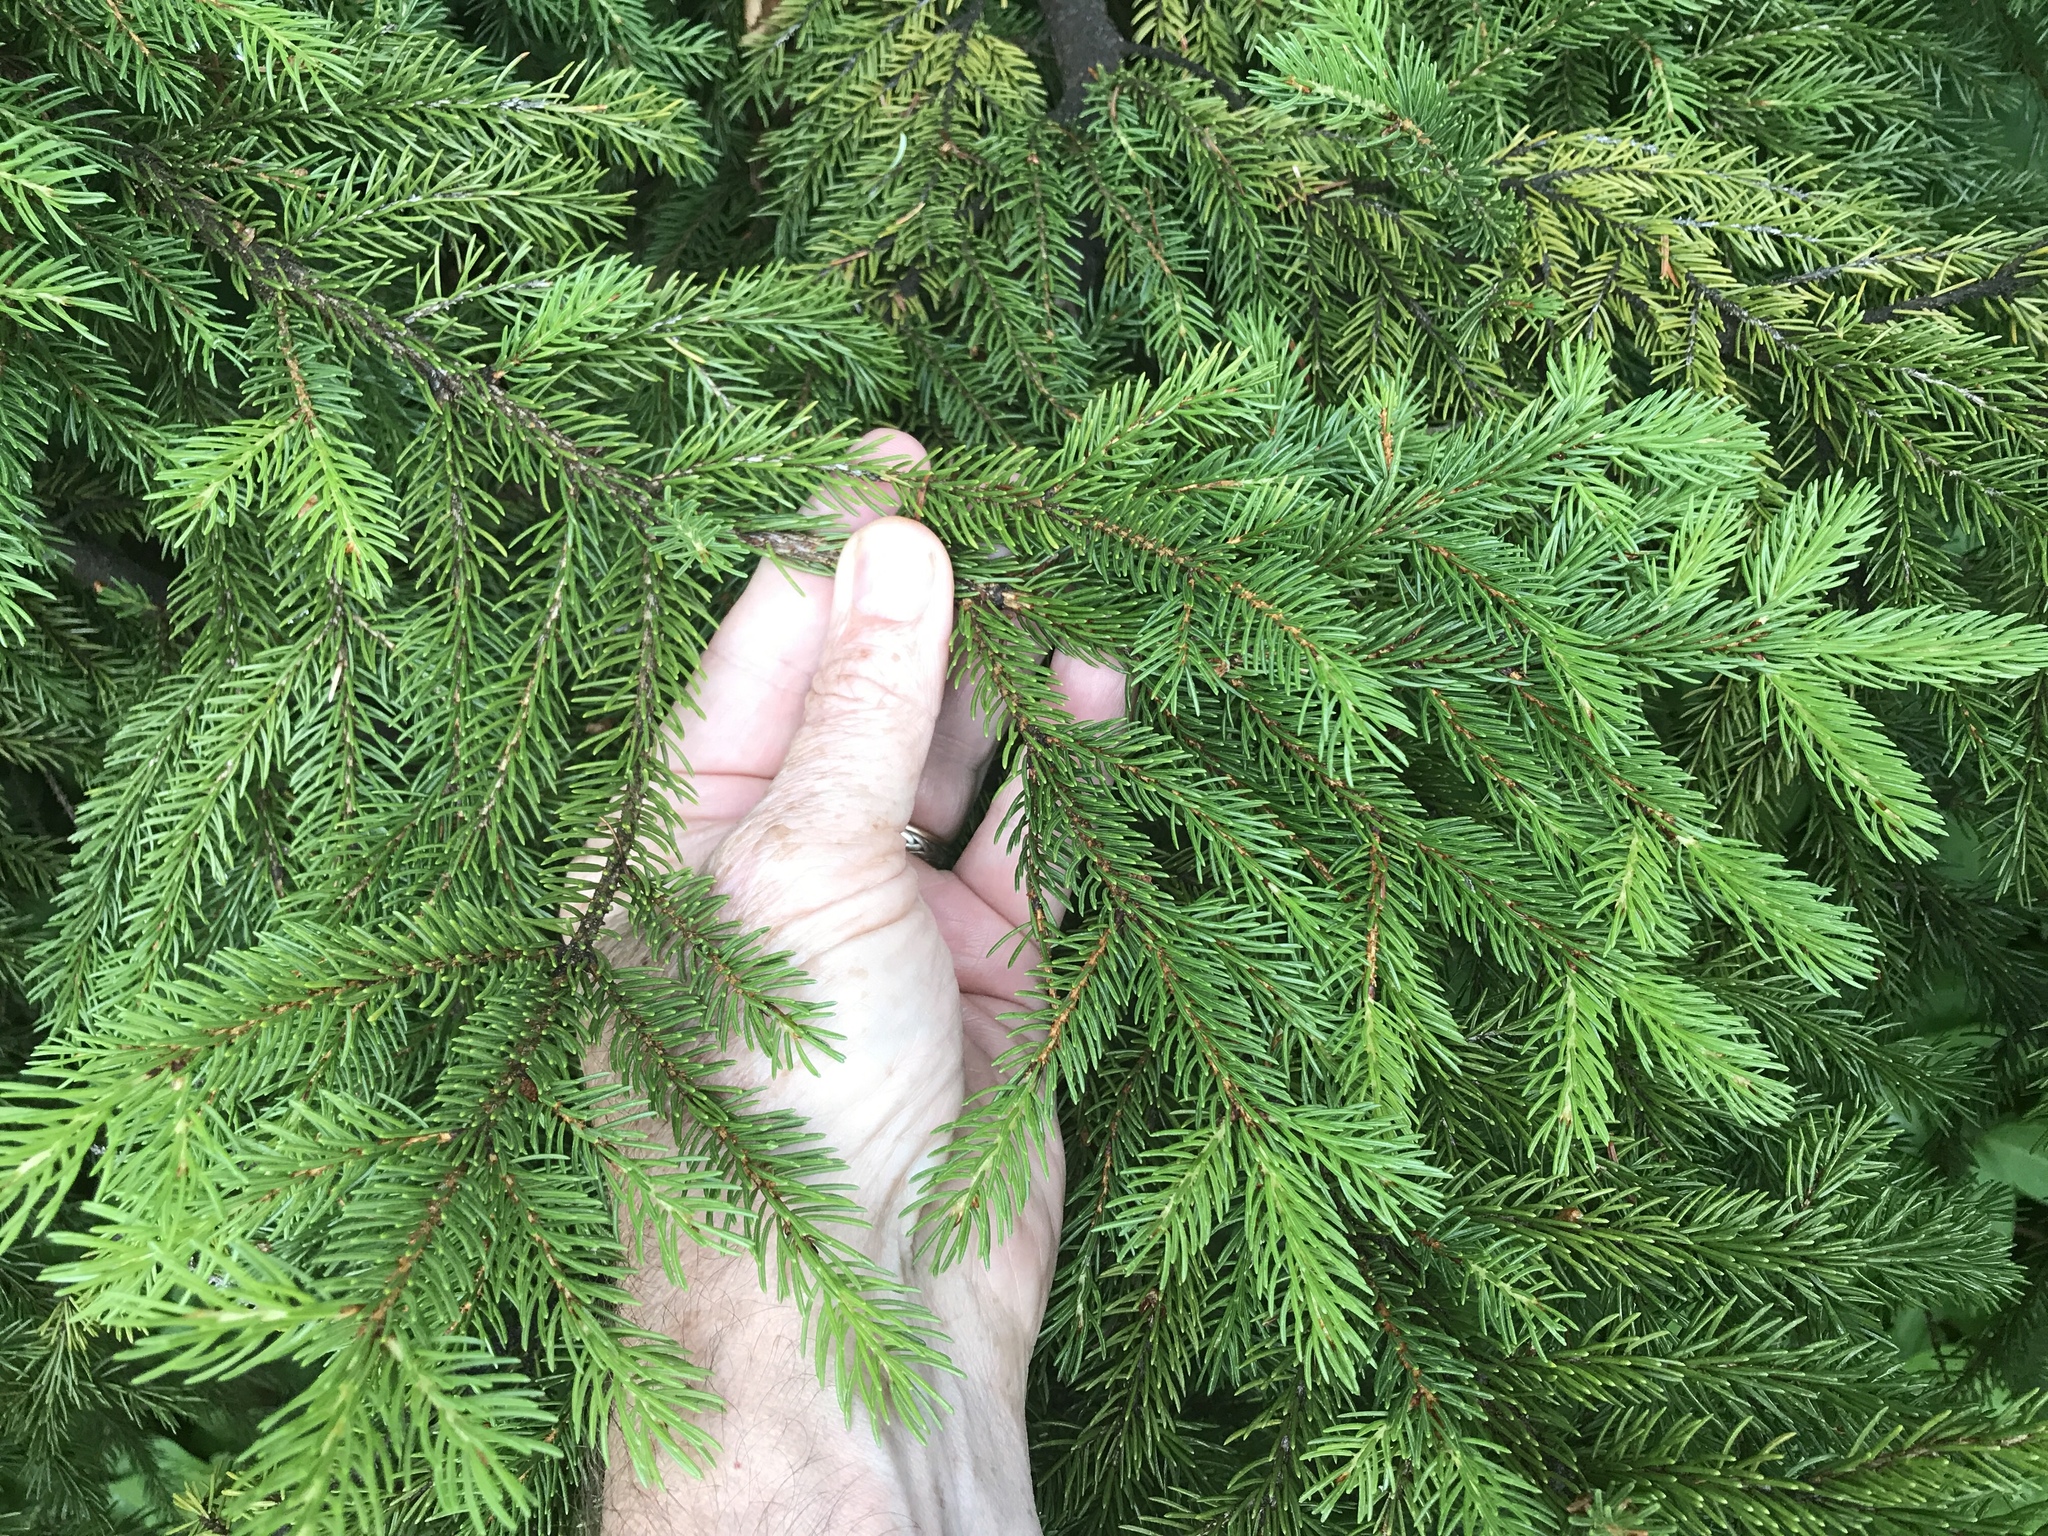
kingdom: Plantae
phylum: Tracheophyta
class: Pinopsida
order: Pinales
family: Pinaceae
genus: Picea
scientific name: Picea rubens
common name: Red spruce
